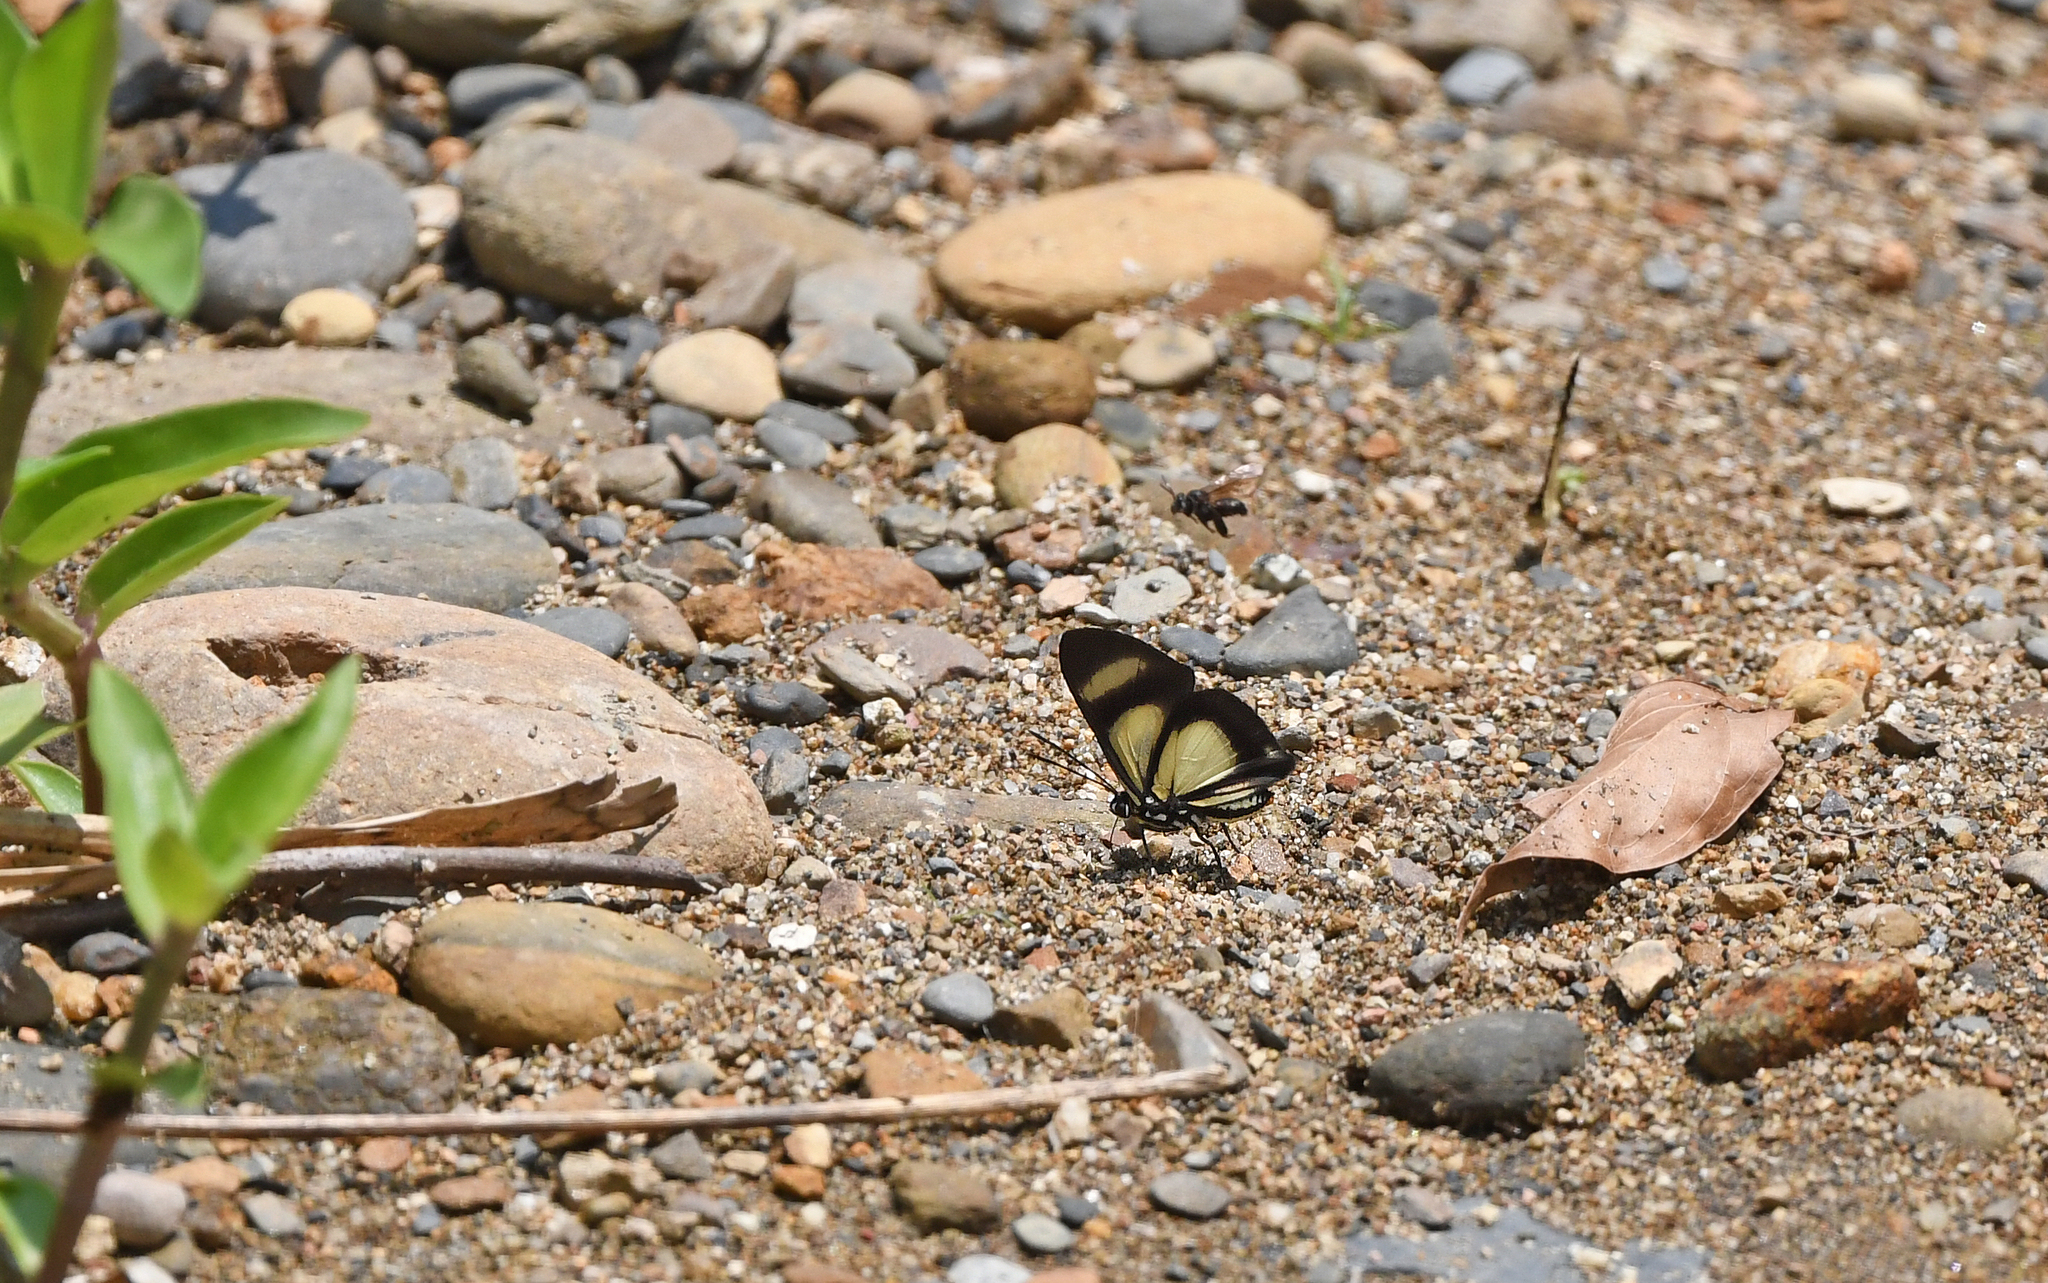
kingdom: Animalia
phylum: Arthropoda
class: Insecta
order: Lepidoptera
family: Riodinidae
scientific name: Riodinidae
